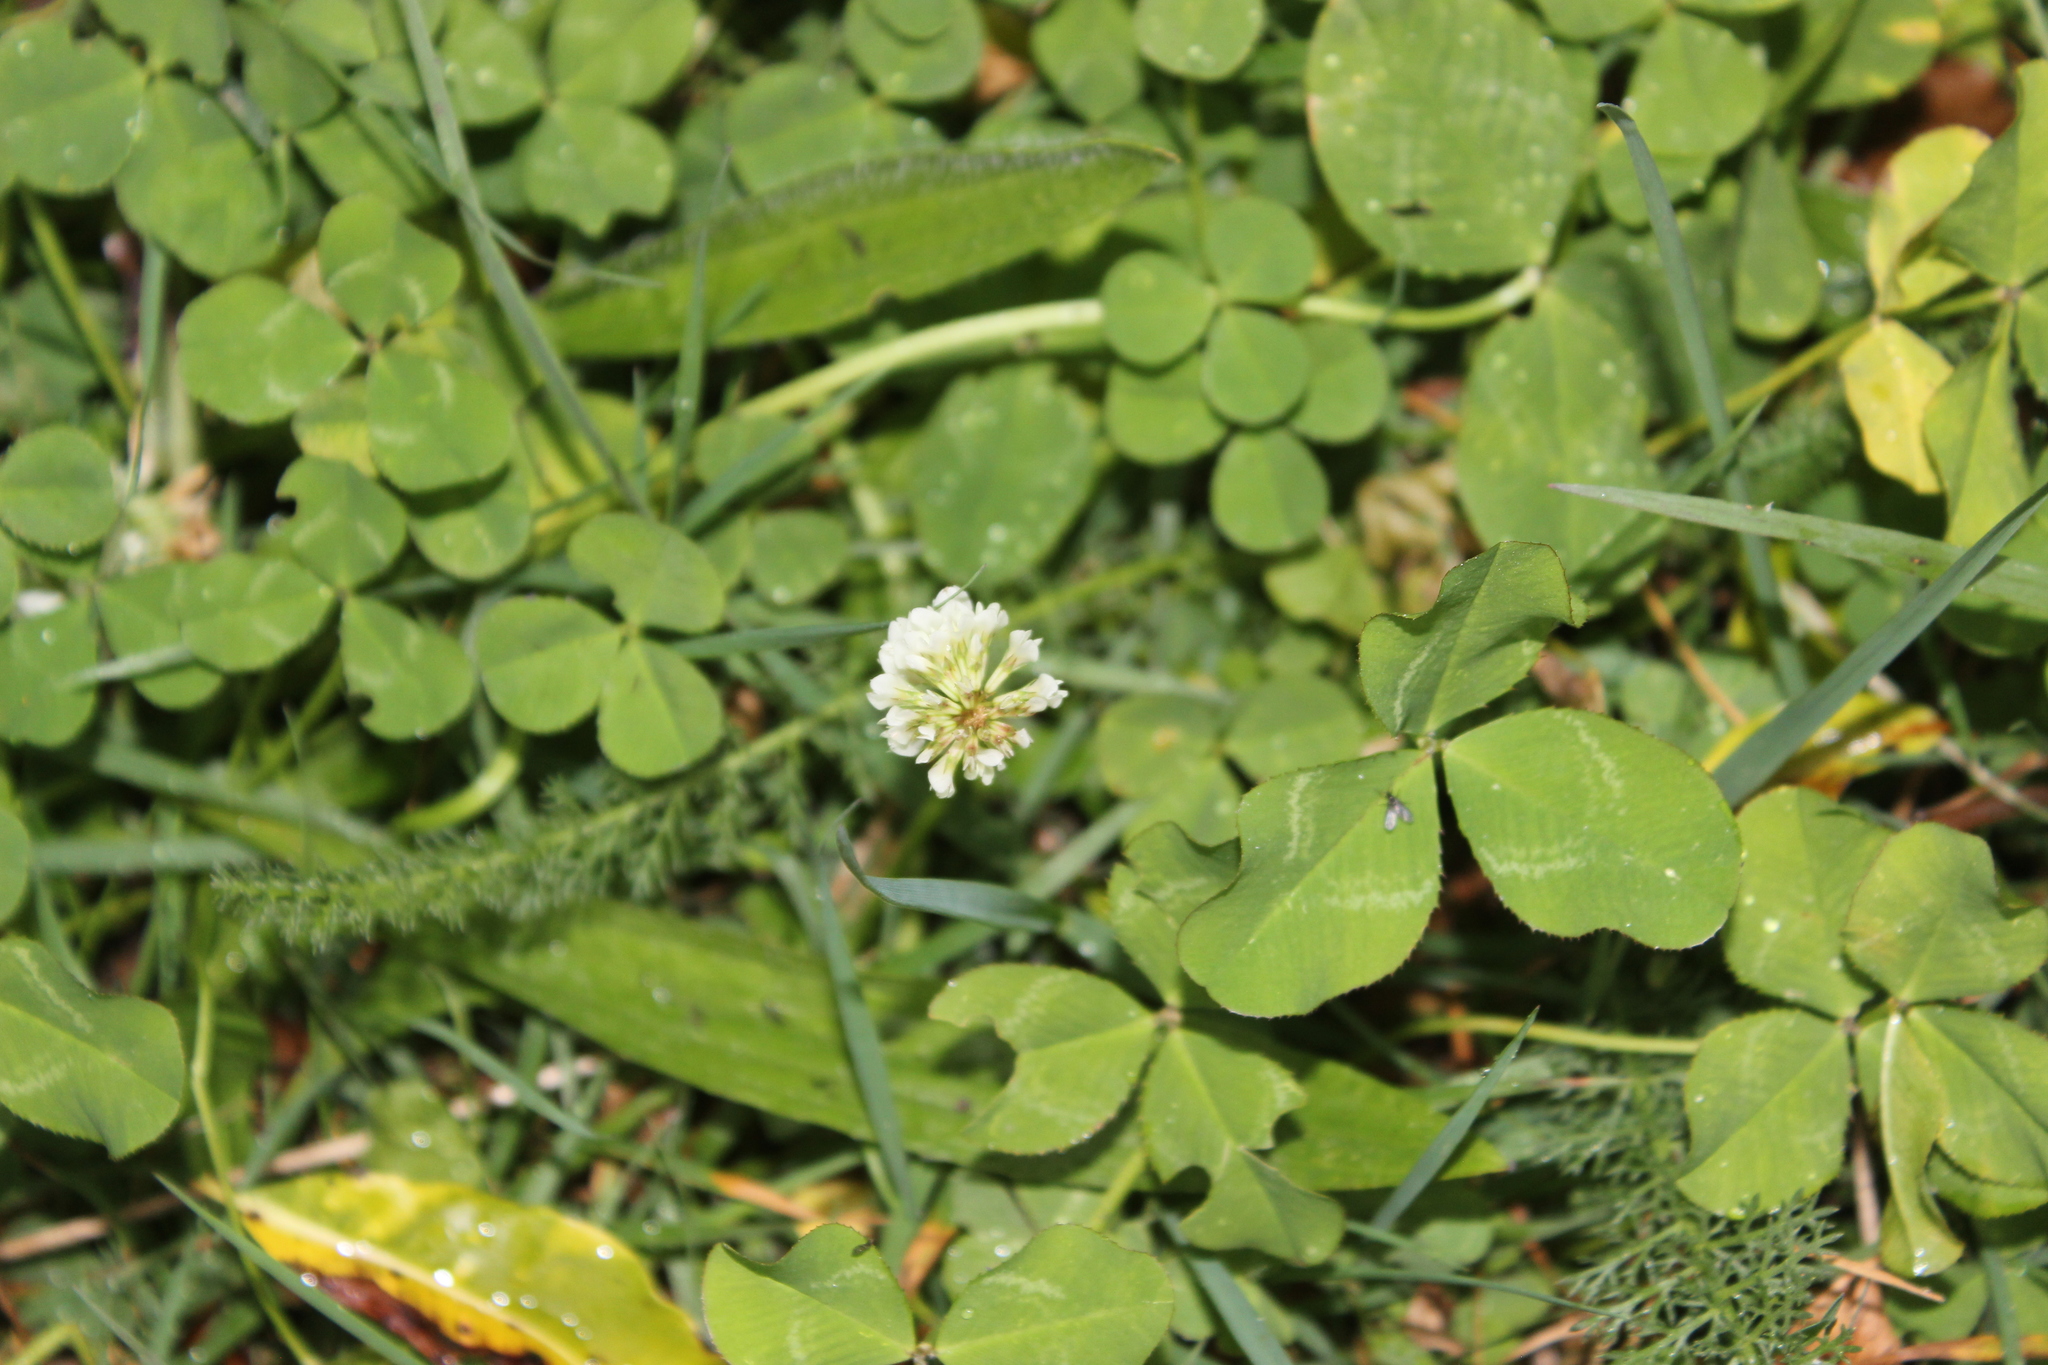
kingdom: Plantae
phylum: Tracheophyta
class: Magnoliopsida
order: Fabales
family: Fabaceae
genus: Trifolium
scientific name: Trifolium repens
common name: White clover
